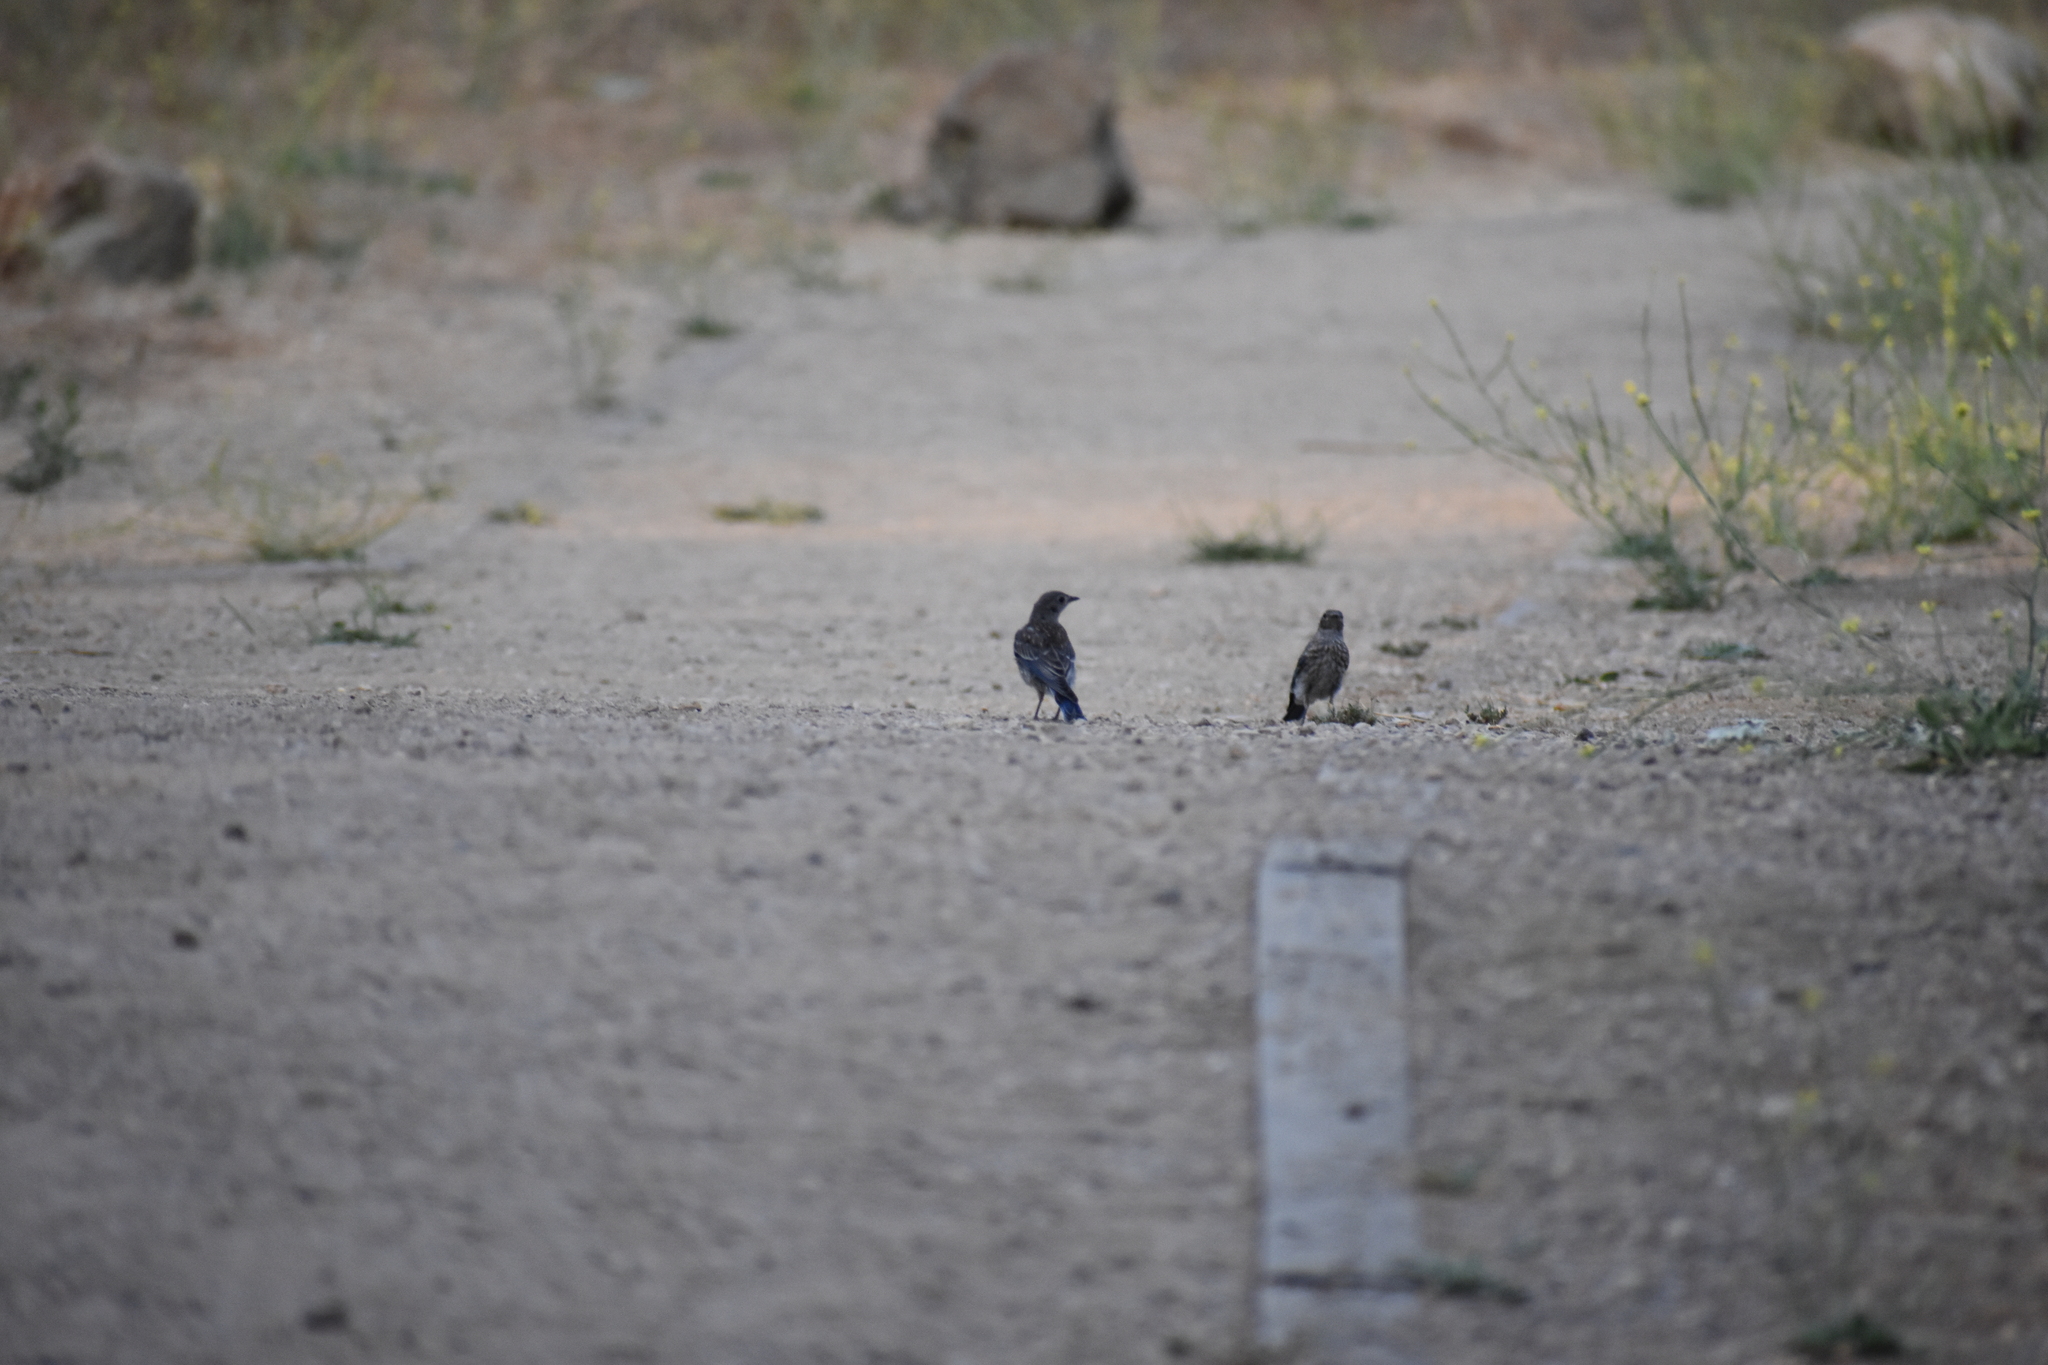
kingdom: Animalia
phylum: Chordata
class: Aves
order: Passeriformes
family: Turdidae
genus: Sialia
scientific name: Sialia mexicana
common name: Western bluebird
